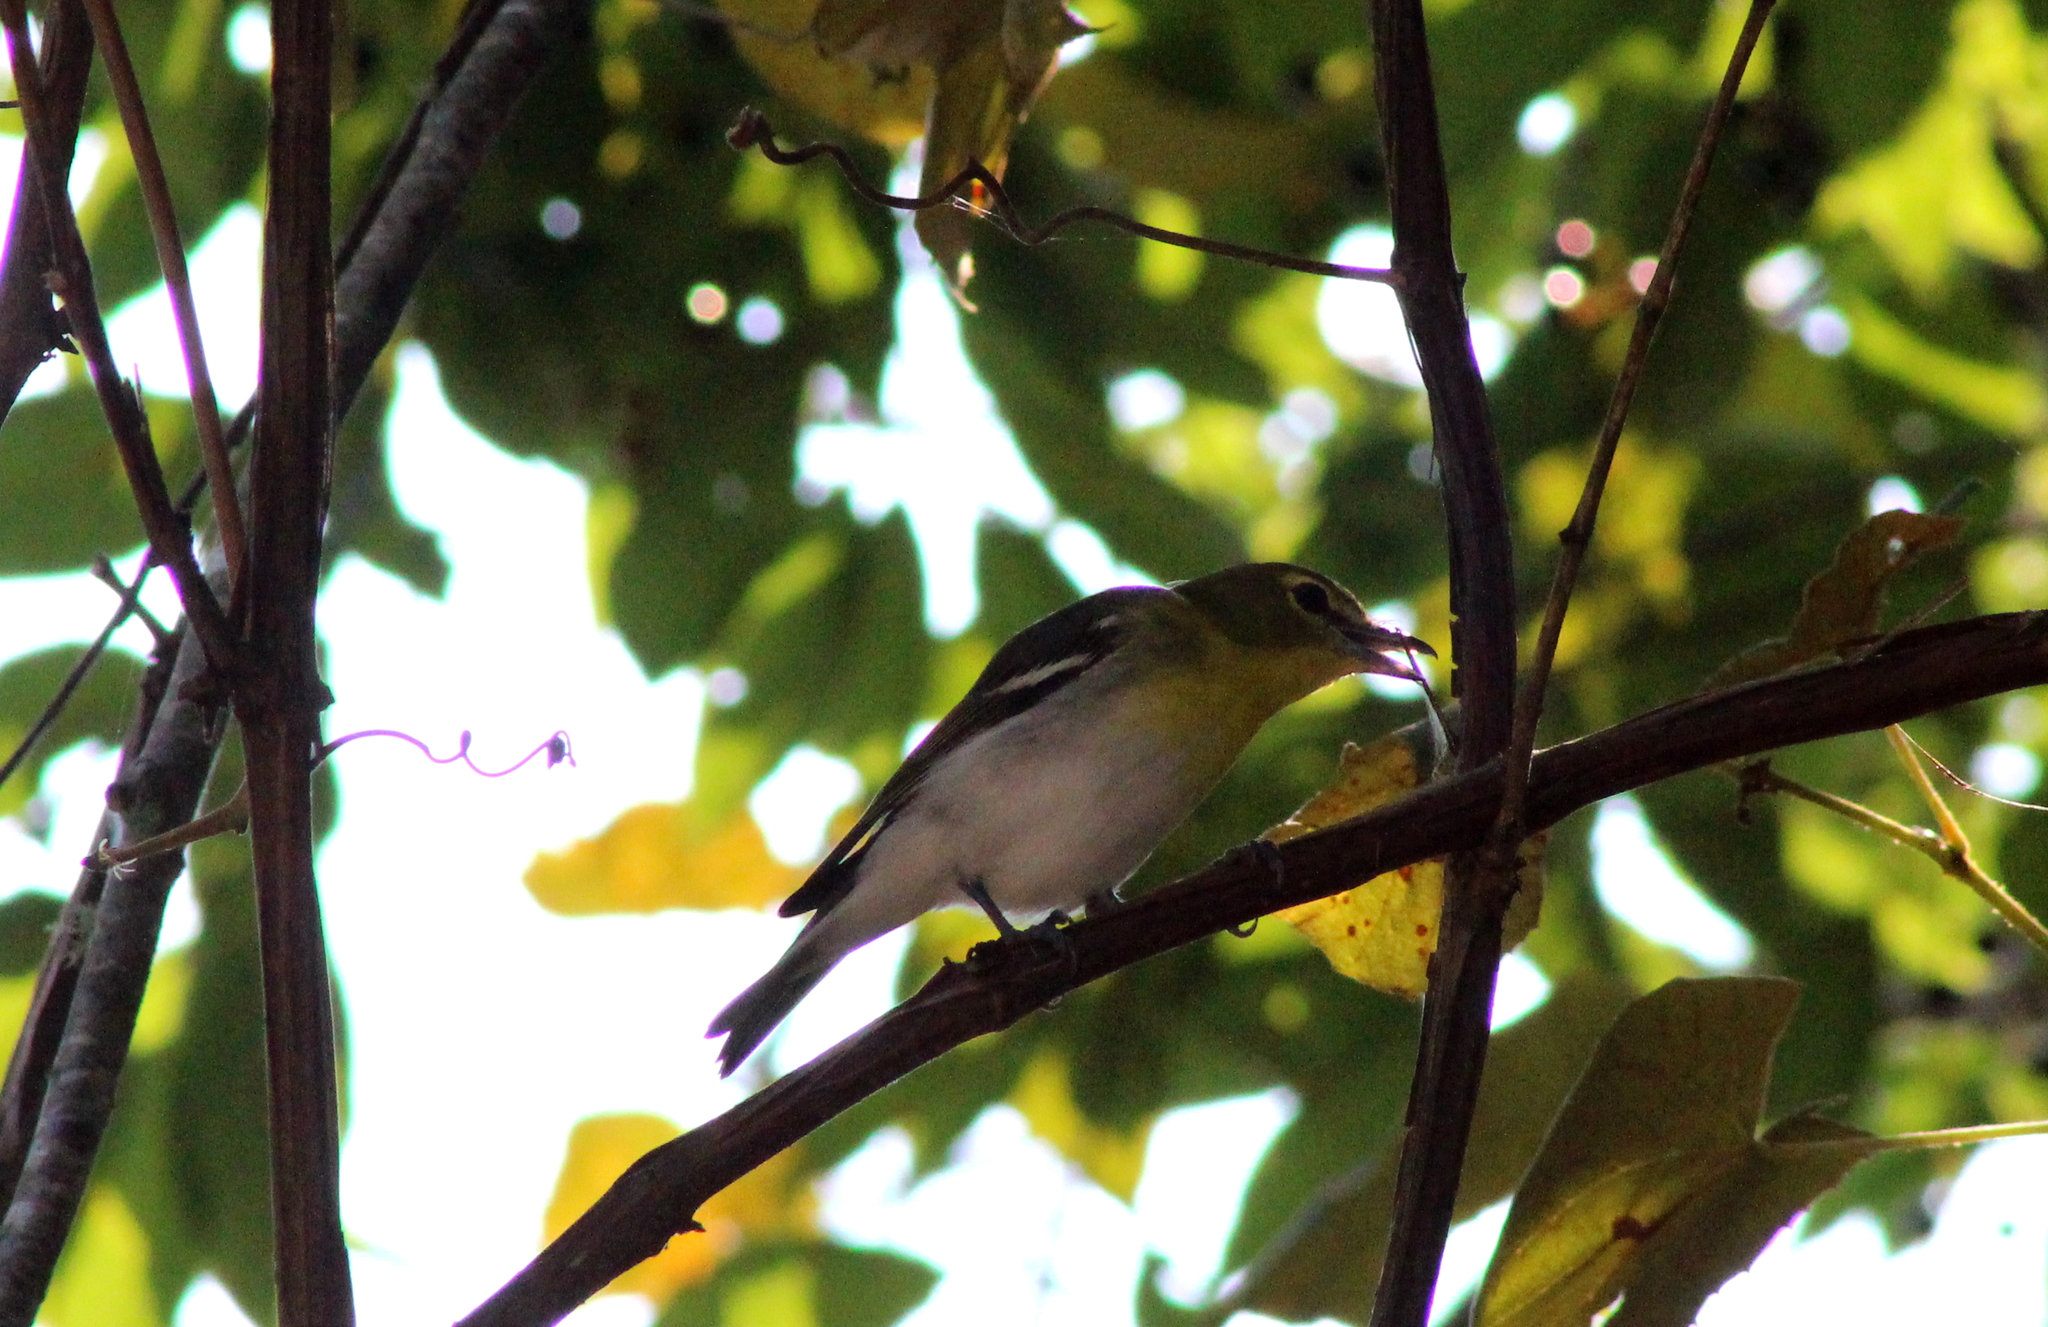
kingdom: Animalia
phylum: Chordata
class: Aves
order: Passeriformes
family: Vireonidae
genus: Vireo
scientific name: Vireo flavifrons
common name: Yellow-throated vireo
